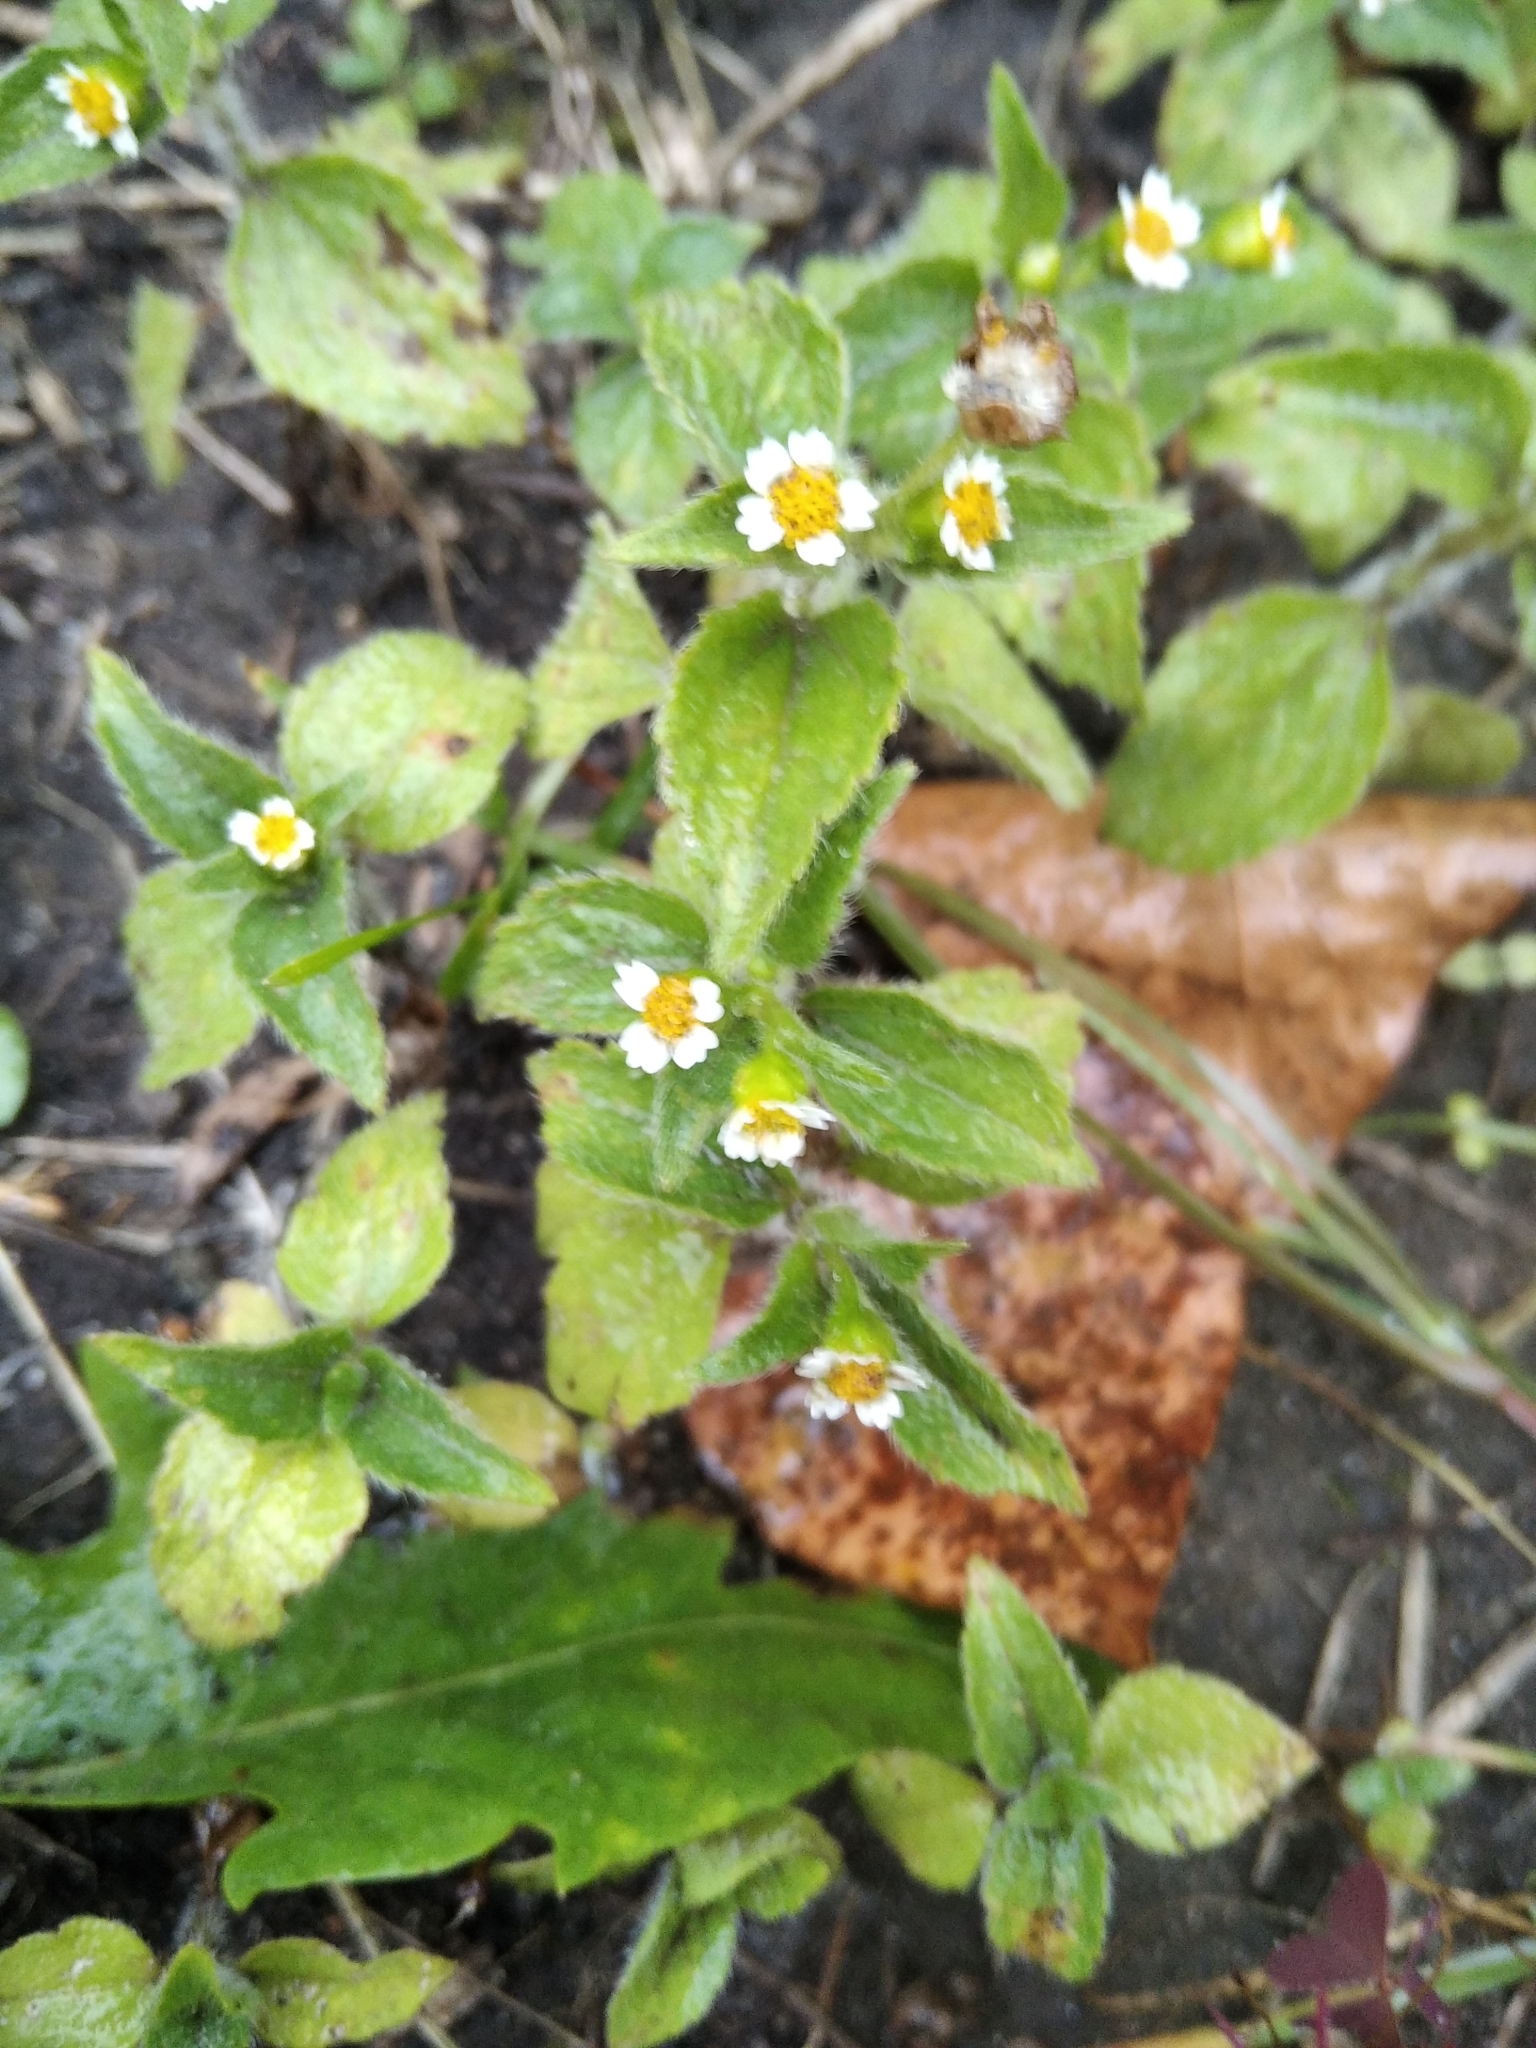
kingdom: Plantae
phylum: Tracheophyta
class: Magnoliopsida
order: Asterales
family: Asteraceae
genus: Galinsoga
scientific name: Galinsoga quadriradiata
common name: Shaggy soldier
